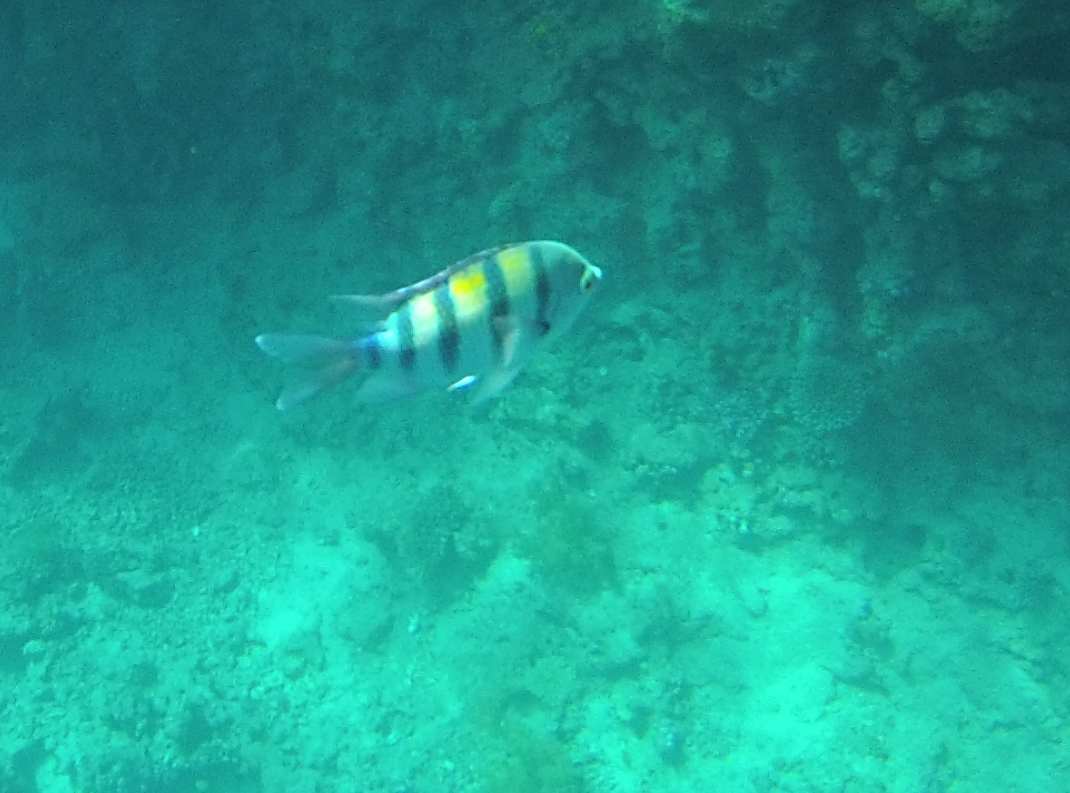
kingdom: Animalia
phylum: Chordata
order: Perciformes
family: Pomacentridae
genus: Abudefduf
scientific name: Abudefduf vaigiensis
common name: Indo-pacific sergeant
